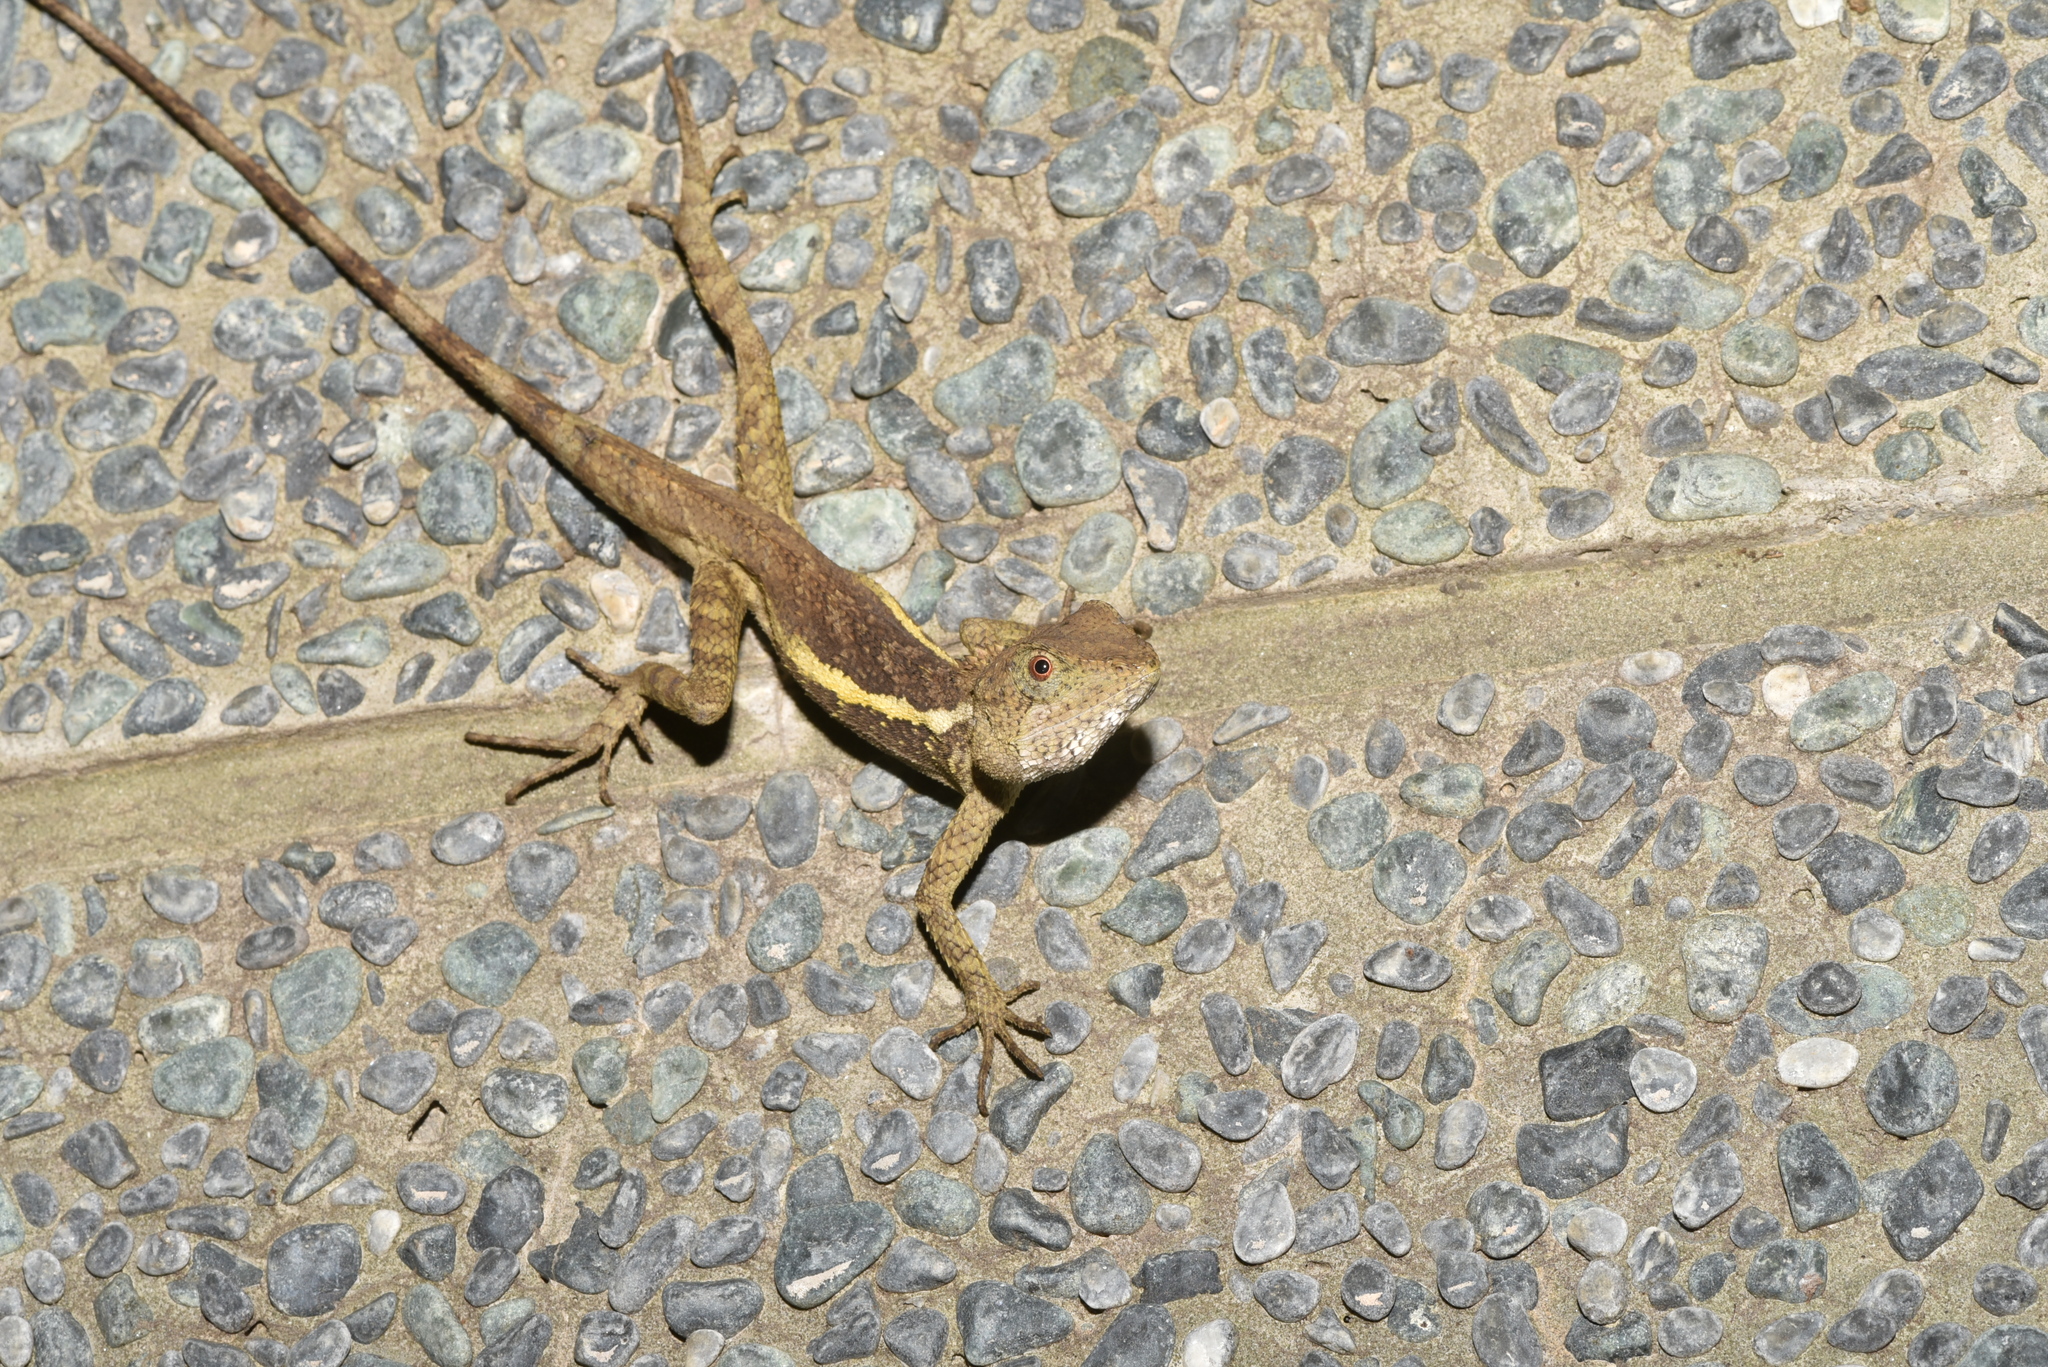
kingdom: Animalia
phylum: Chordata
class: Squamata
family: Agamidae
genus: Diploderma
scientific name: Diploderma swinhonis
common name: Taiwan japalure
